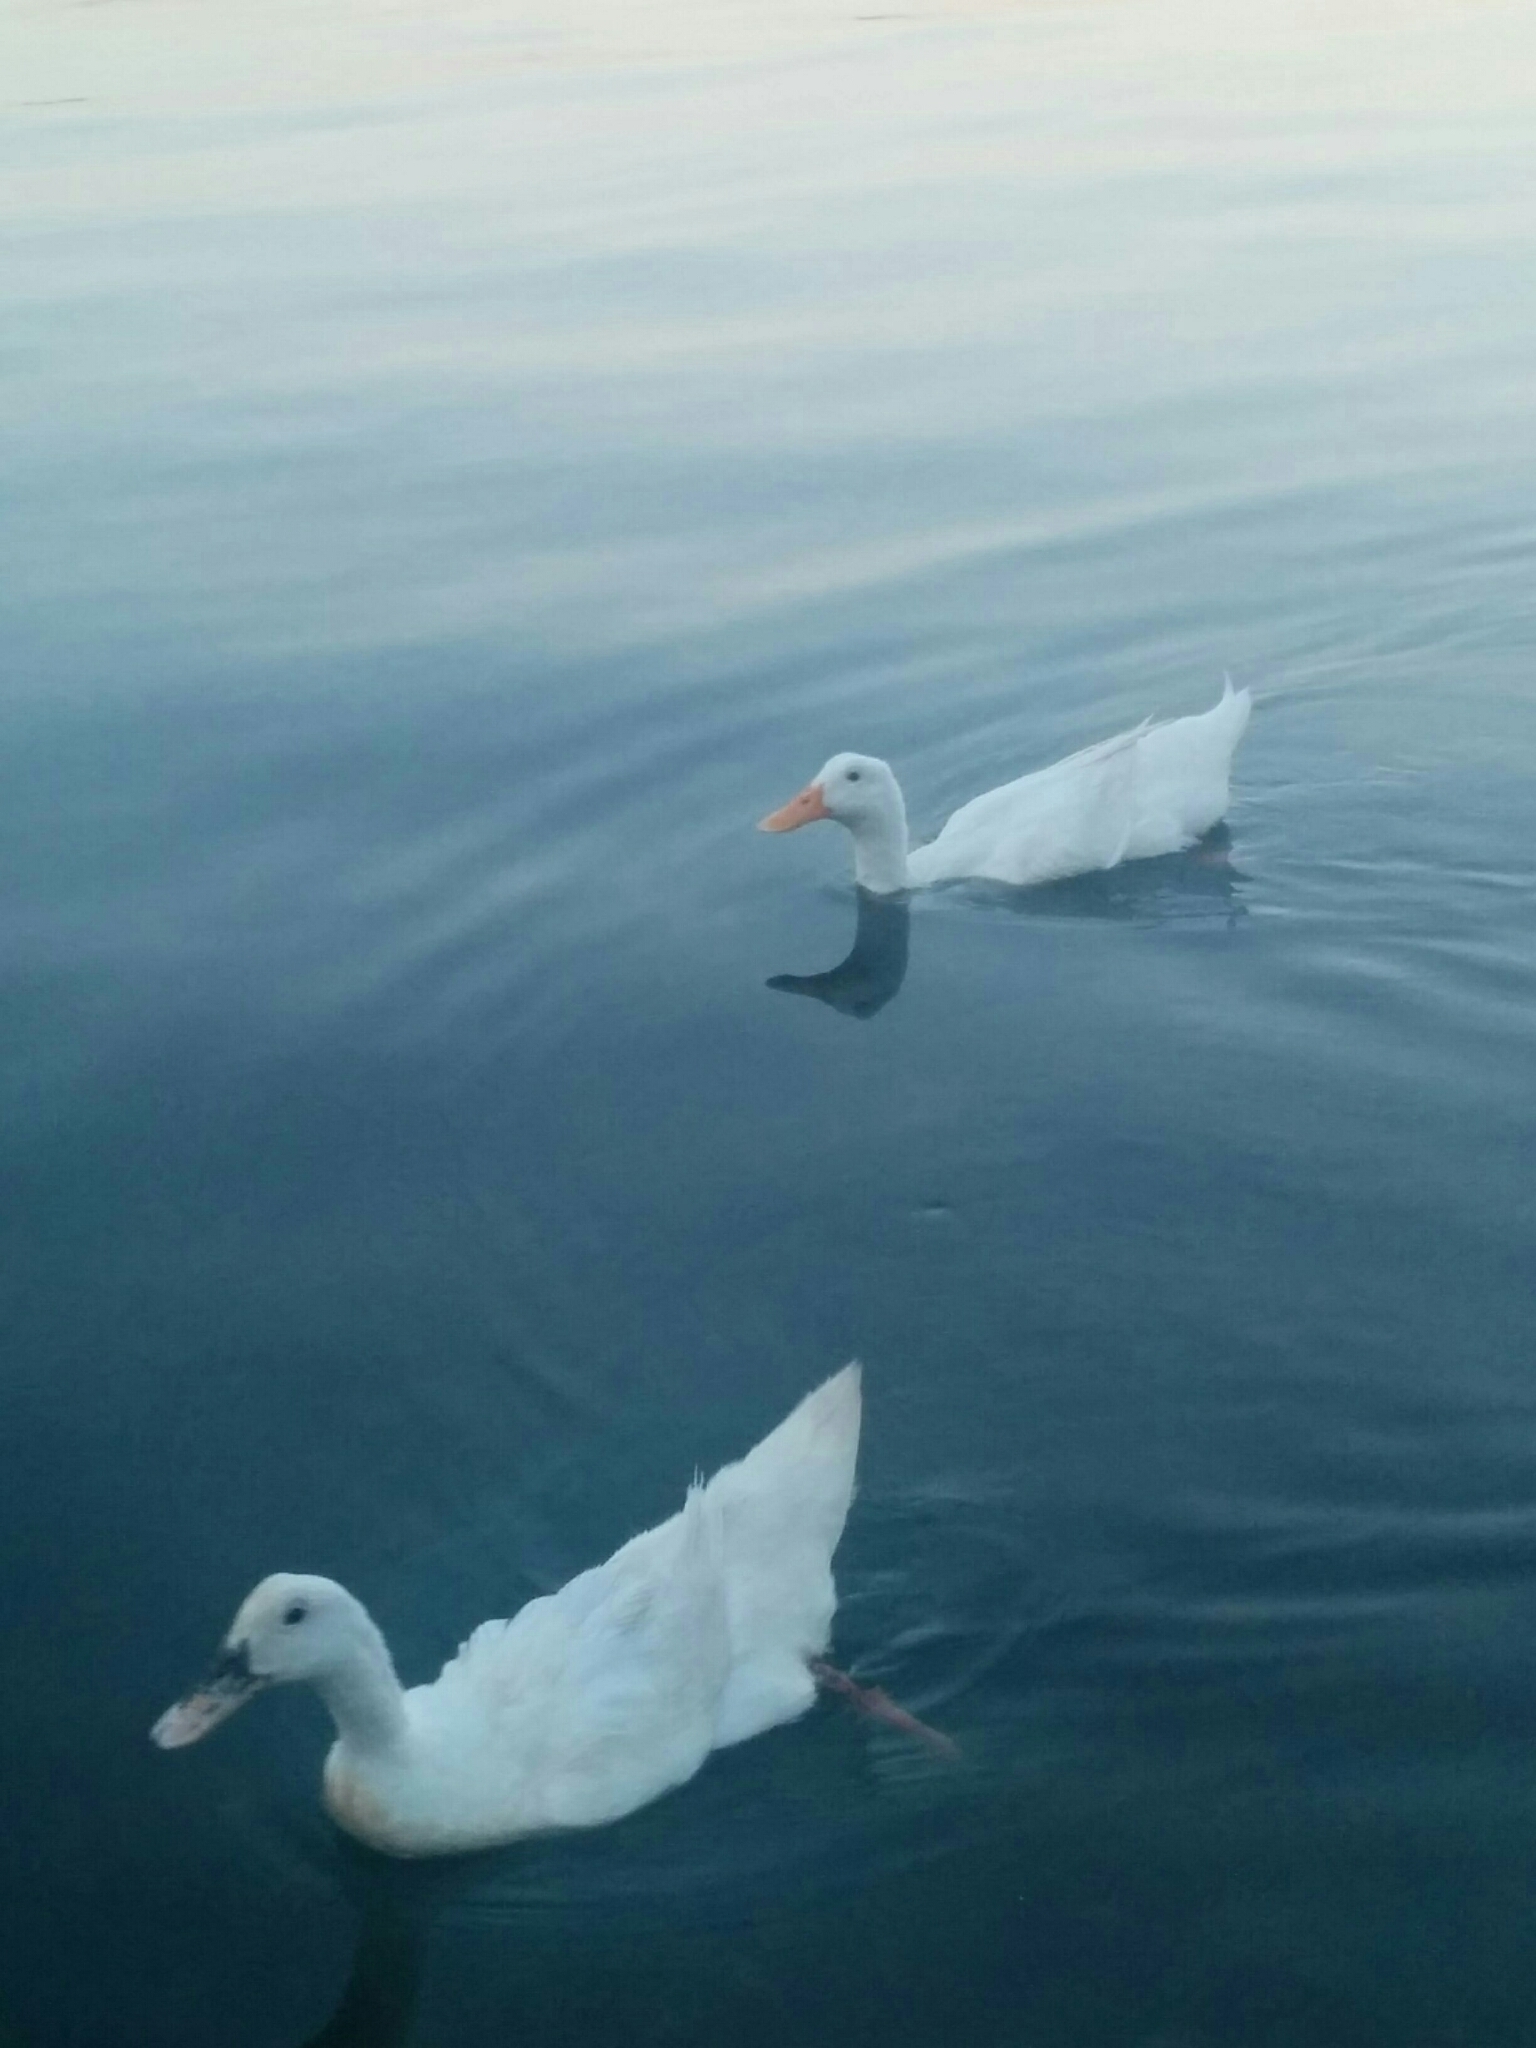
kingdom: Animalia
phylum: Chordata
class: Aves
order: Anseriformes
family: Anatidae
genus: Anas
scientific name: Anas platyrhynchos
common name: Mallard
